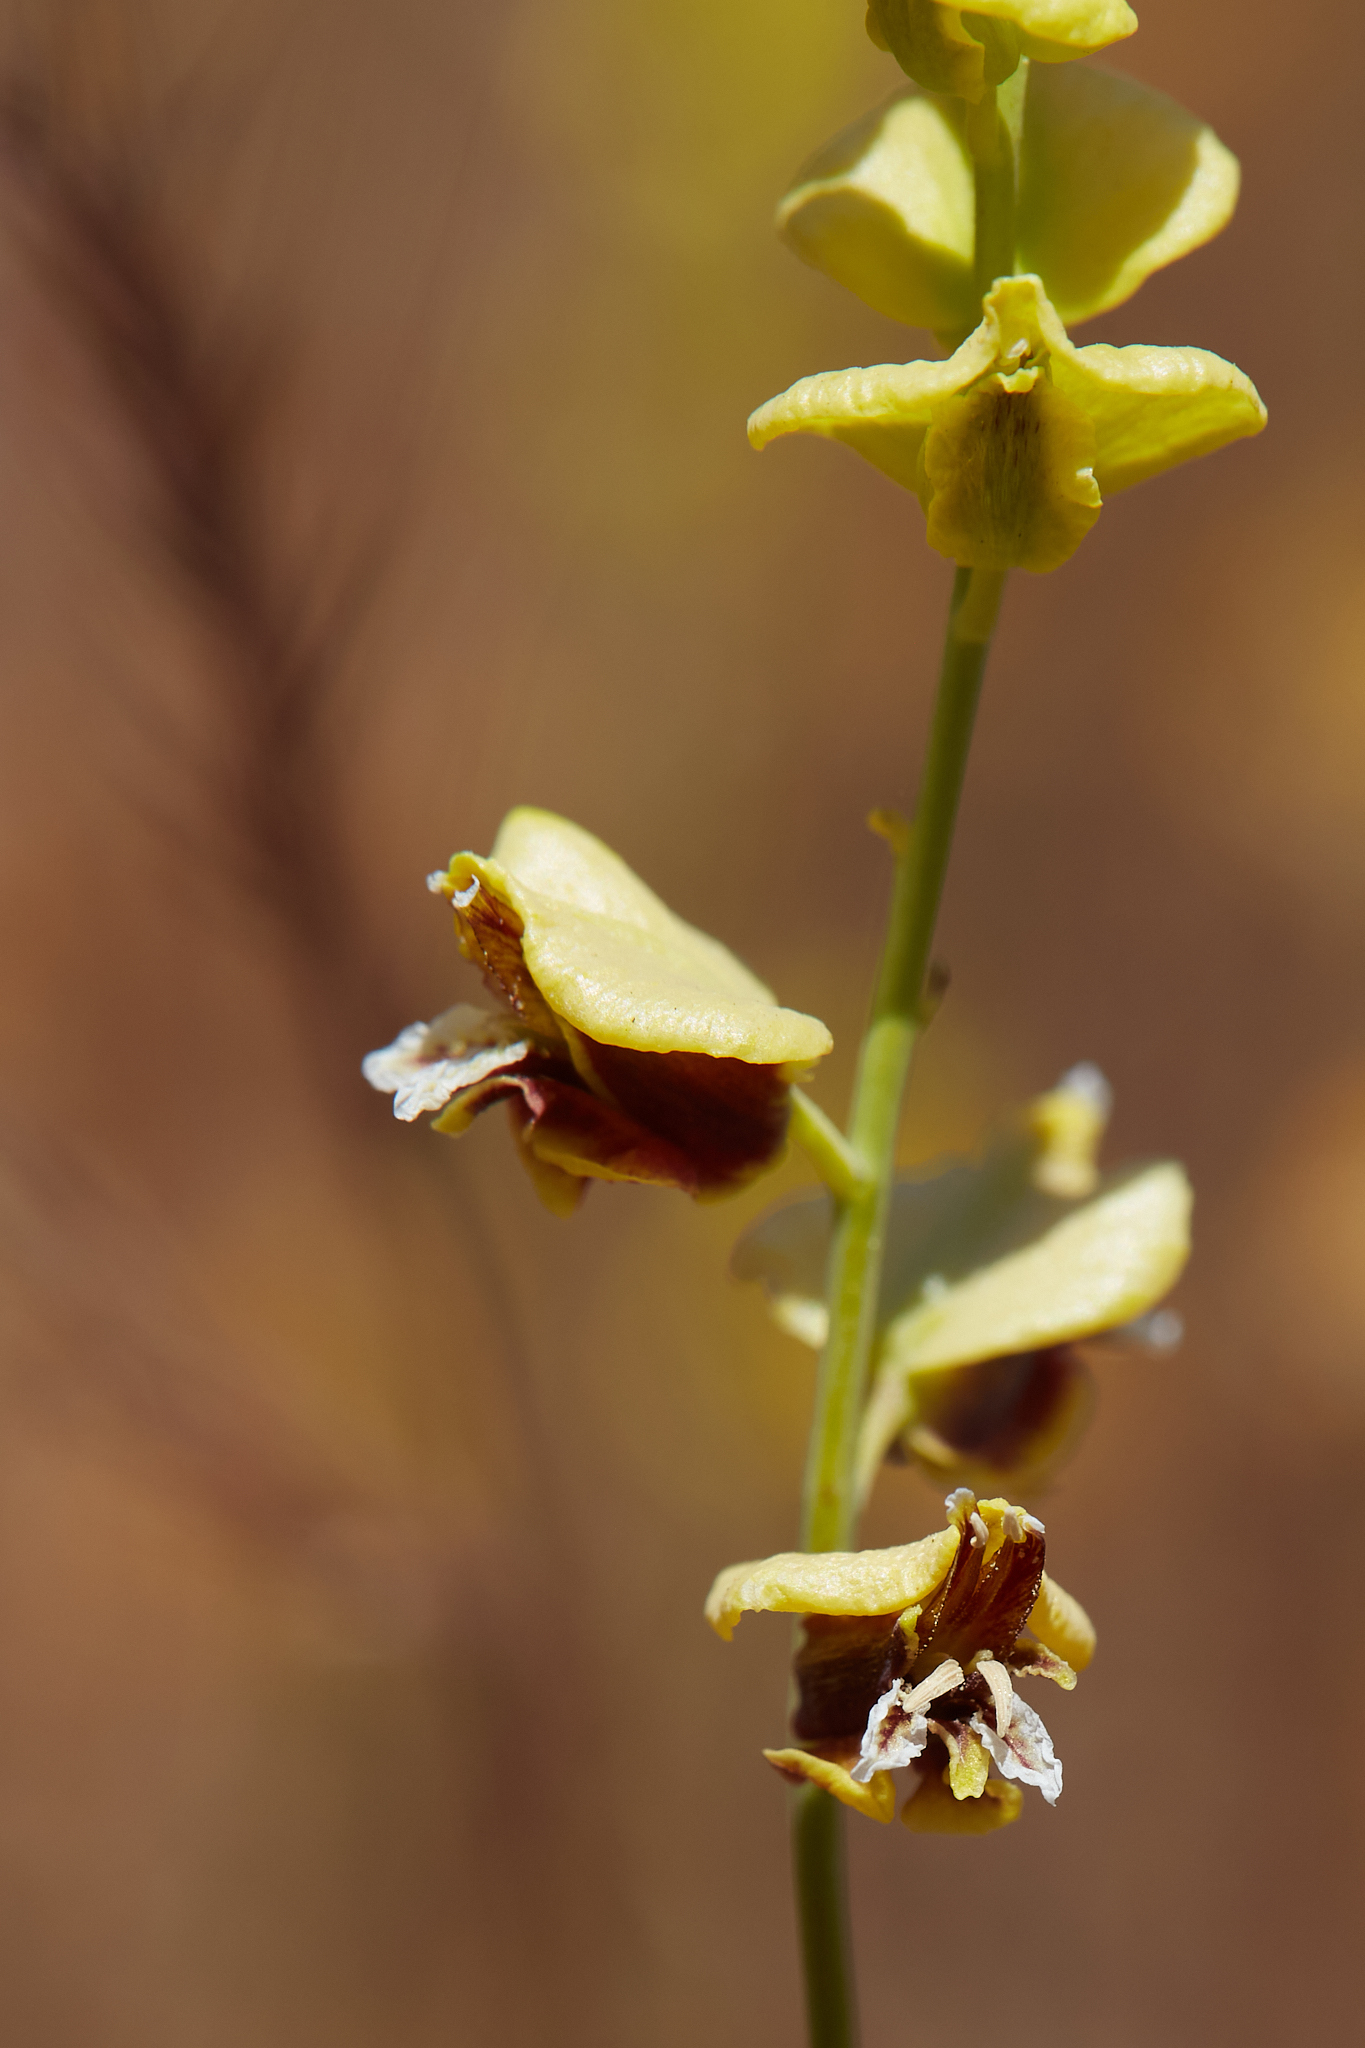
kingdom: Plantae
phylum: Tracheophyta
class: Magnoliopsida
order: Brassicales
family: Brassicaceae
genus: Streptanthus
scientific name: Streptanthus polygaloides
